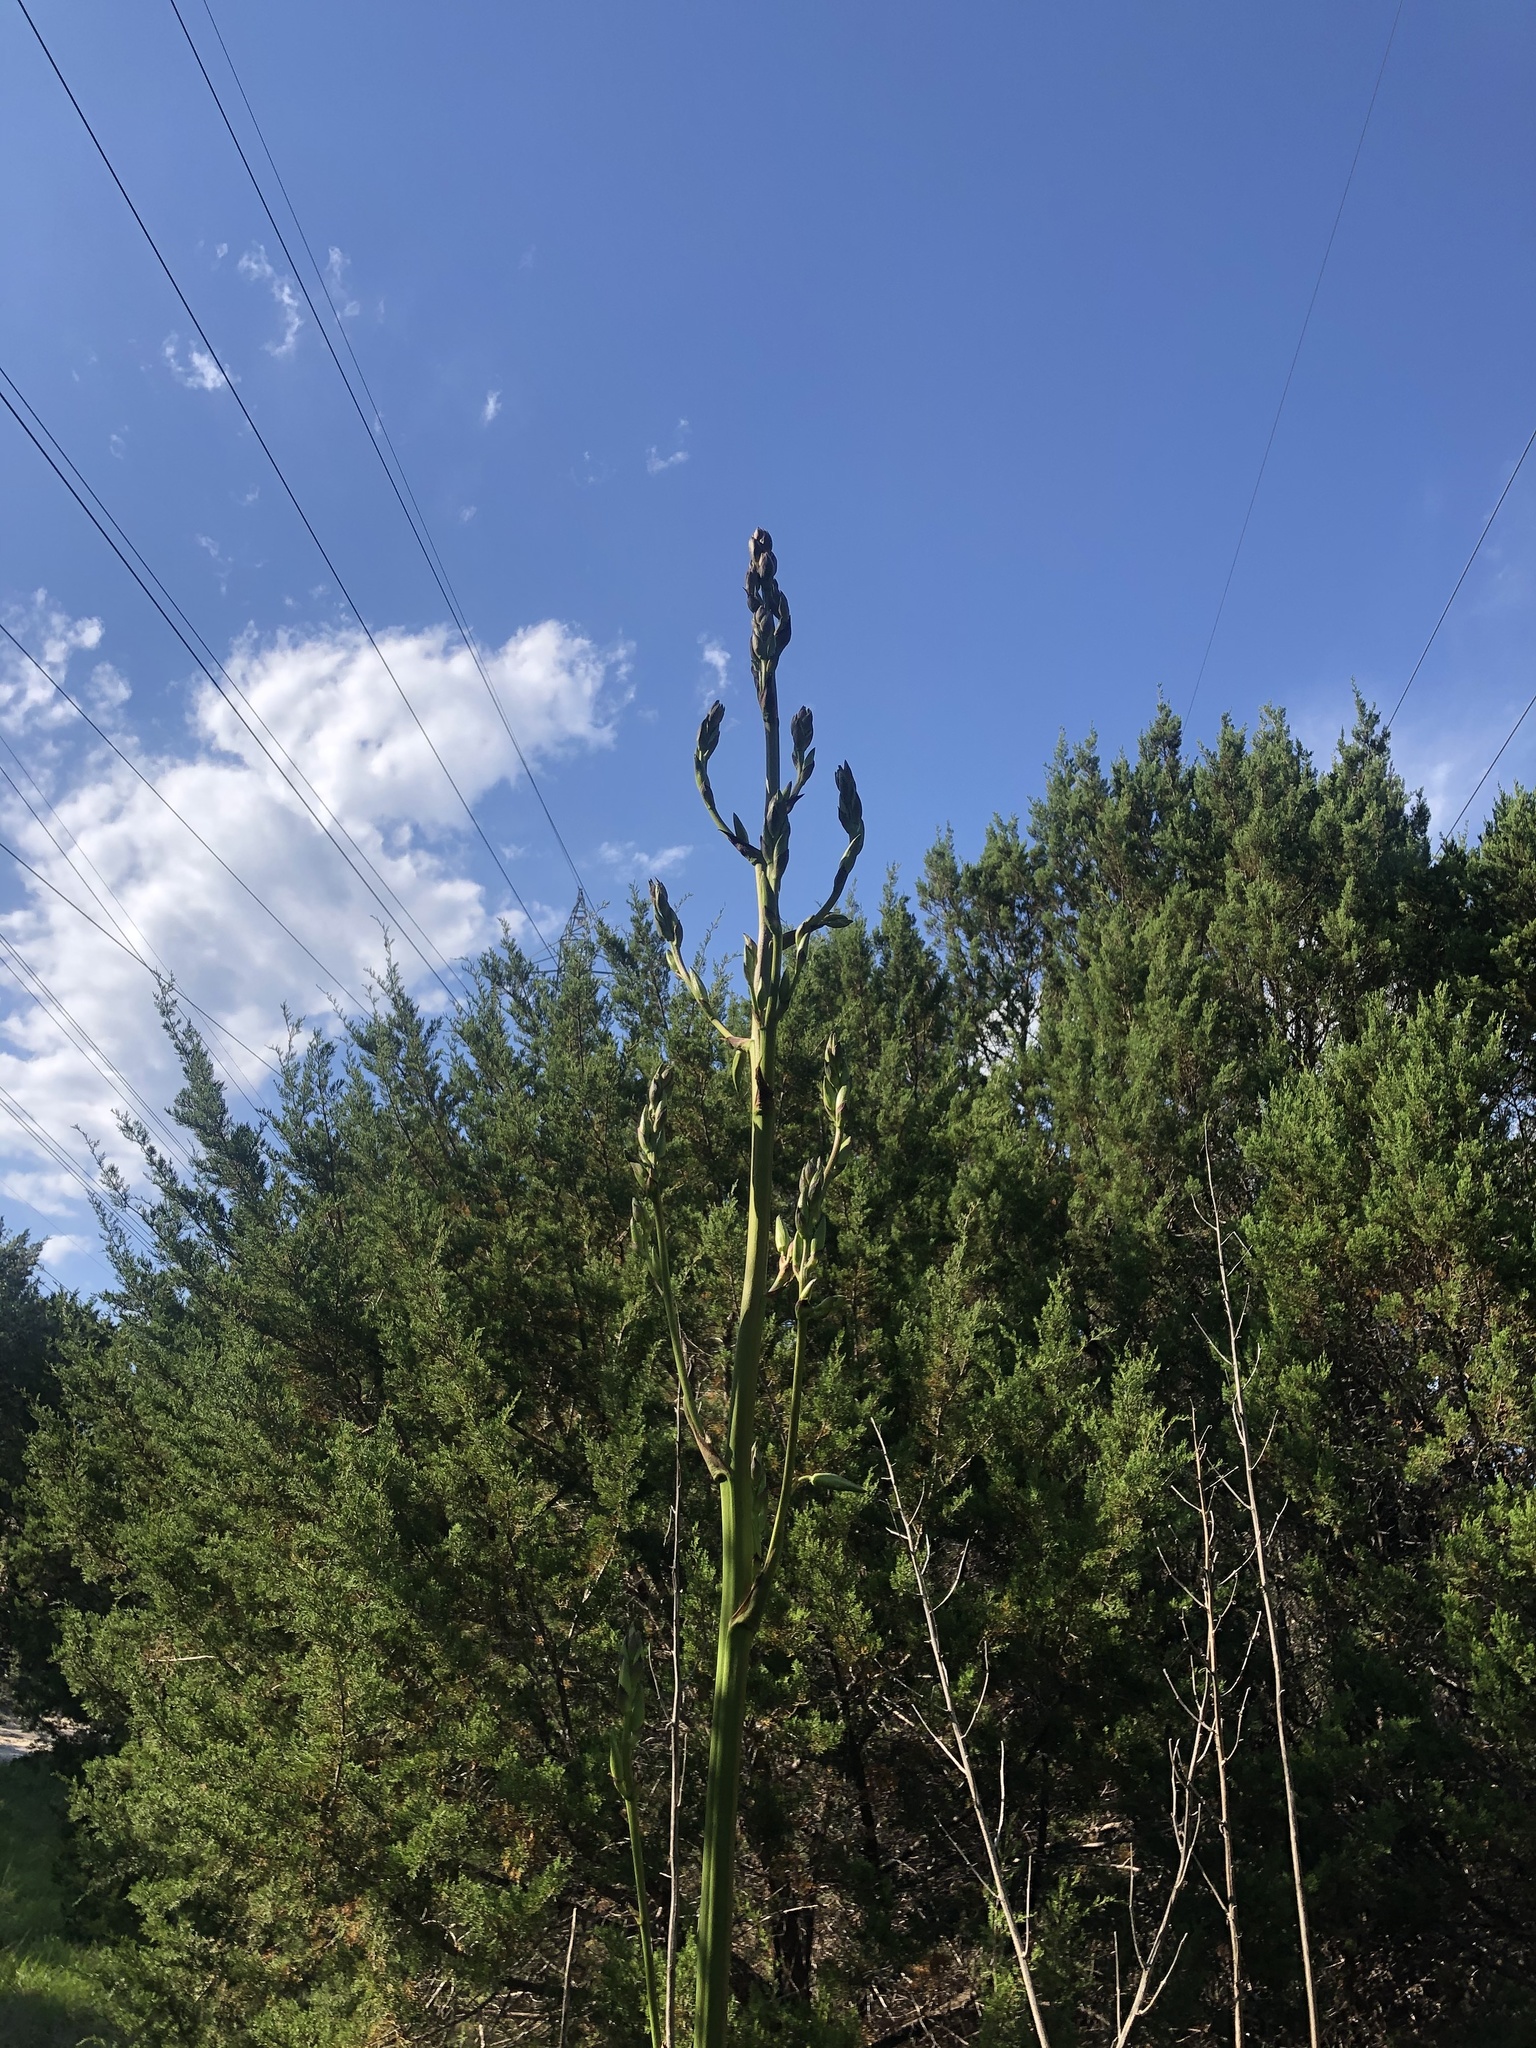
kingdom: Plantae
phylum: Tracheophyta
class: Liliopsida
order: Asparagales
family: Asparagaceae
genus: Yucca
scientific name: Yucca rupicola
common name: Twisted-leaf spanish-dagger
